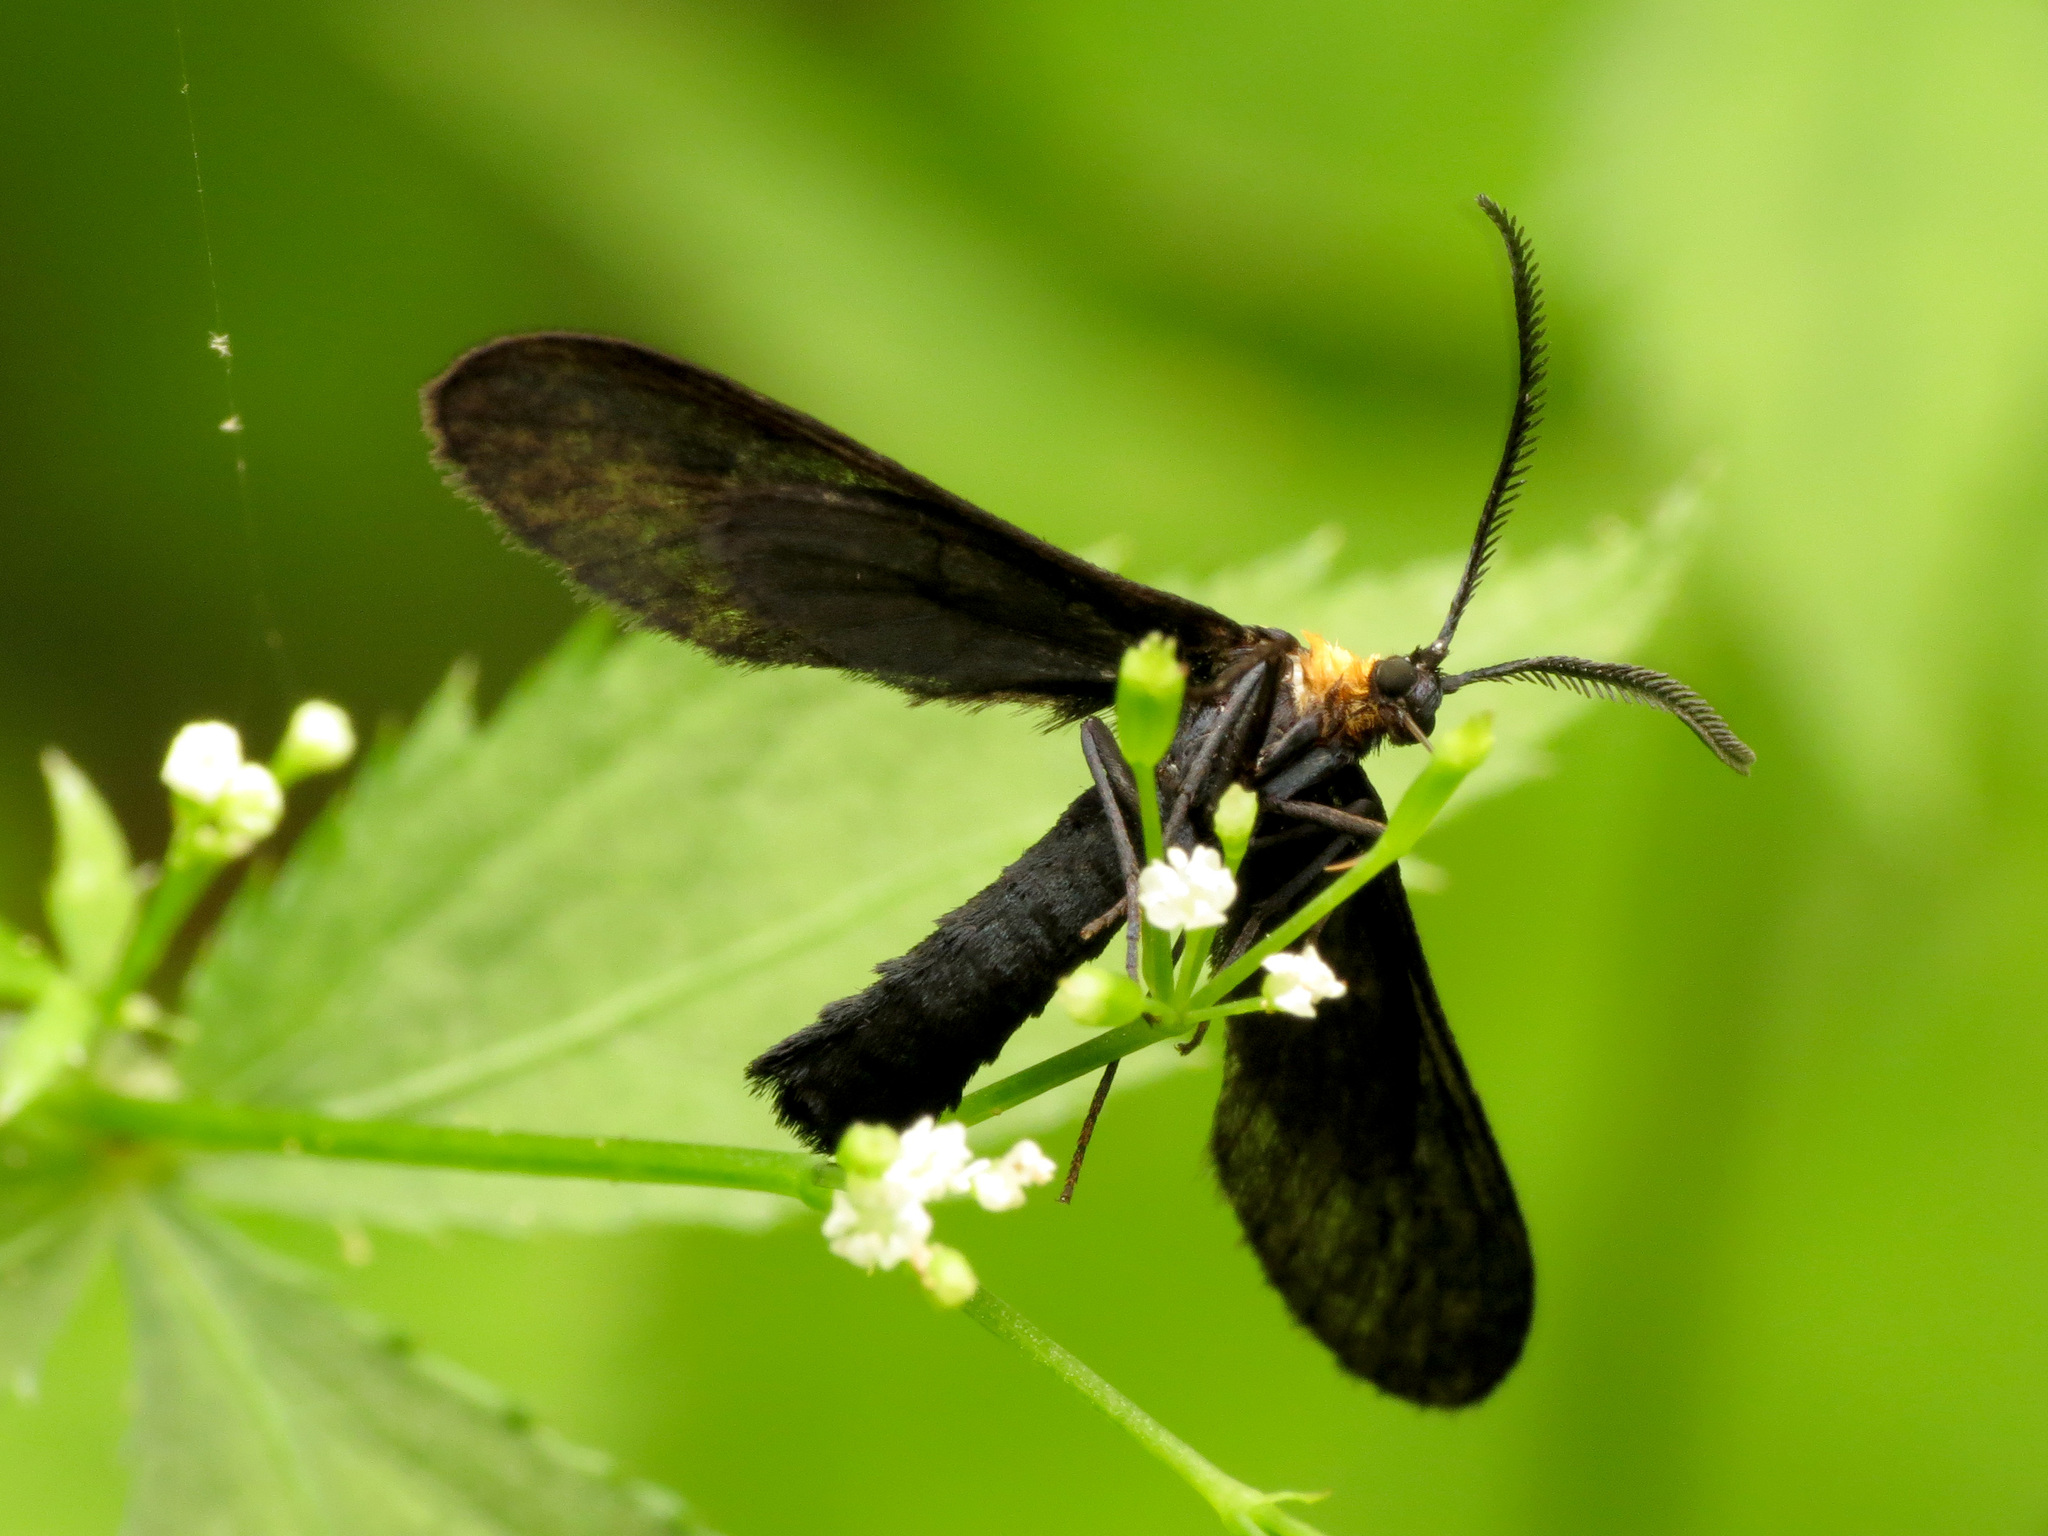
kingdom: Animalia
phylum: Arthropoda
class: Insecta
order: Lepidoptera
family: Zygaenidae
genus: Harrisina
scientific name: Harrisina americana
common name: Grapeleaf skeletonizer moth
